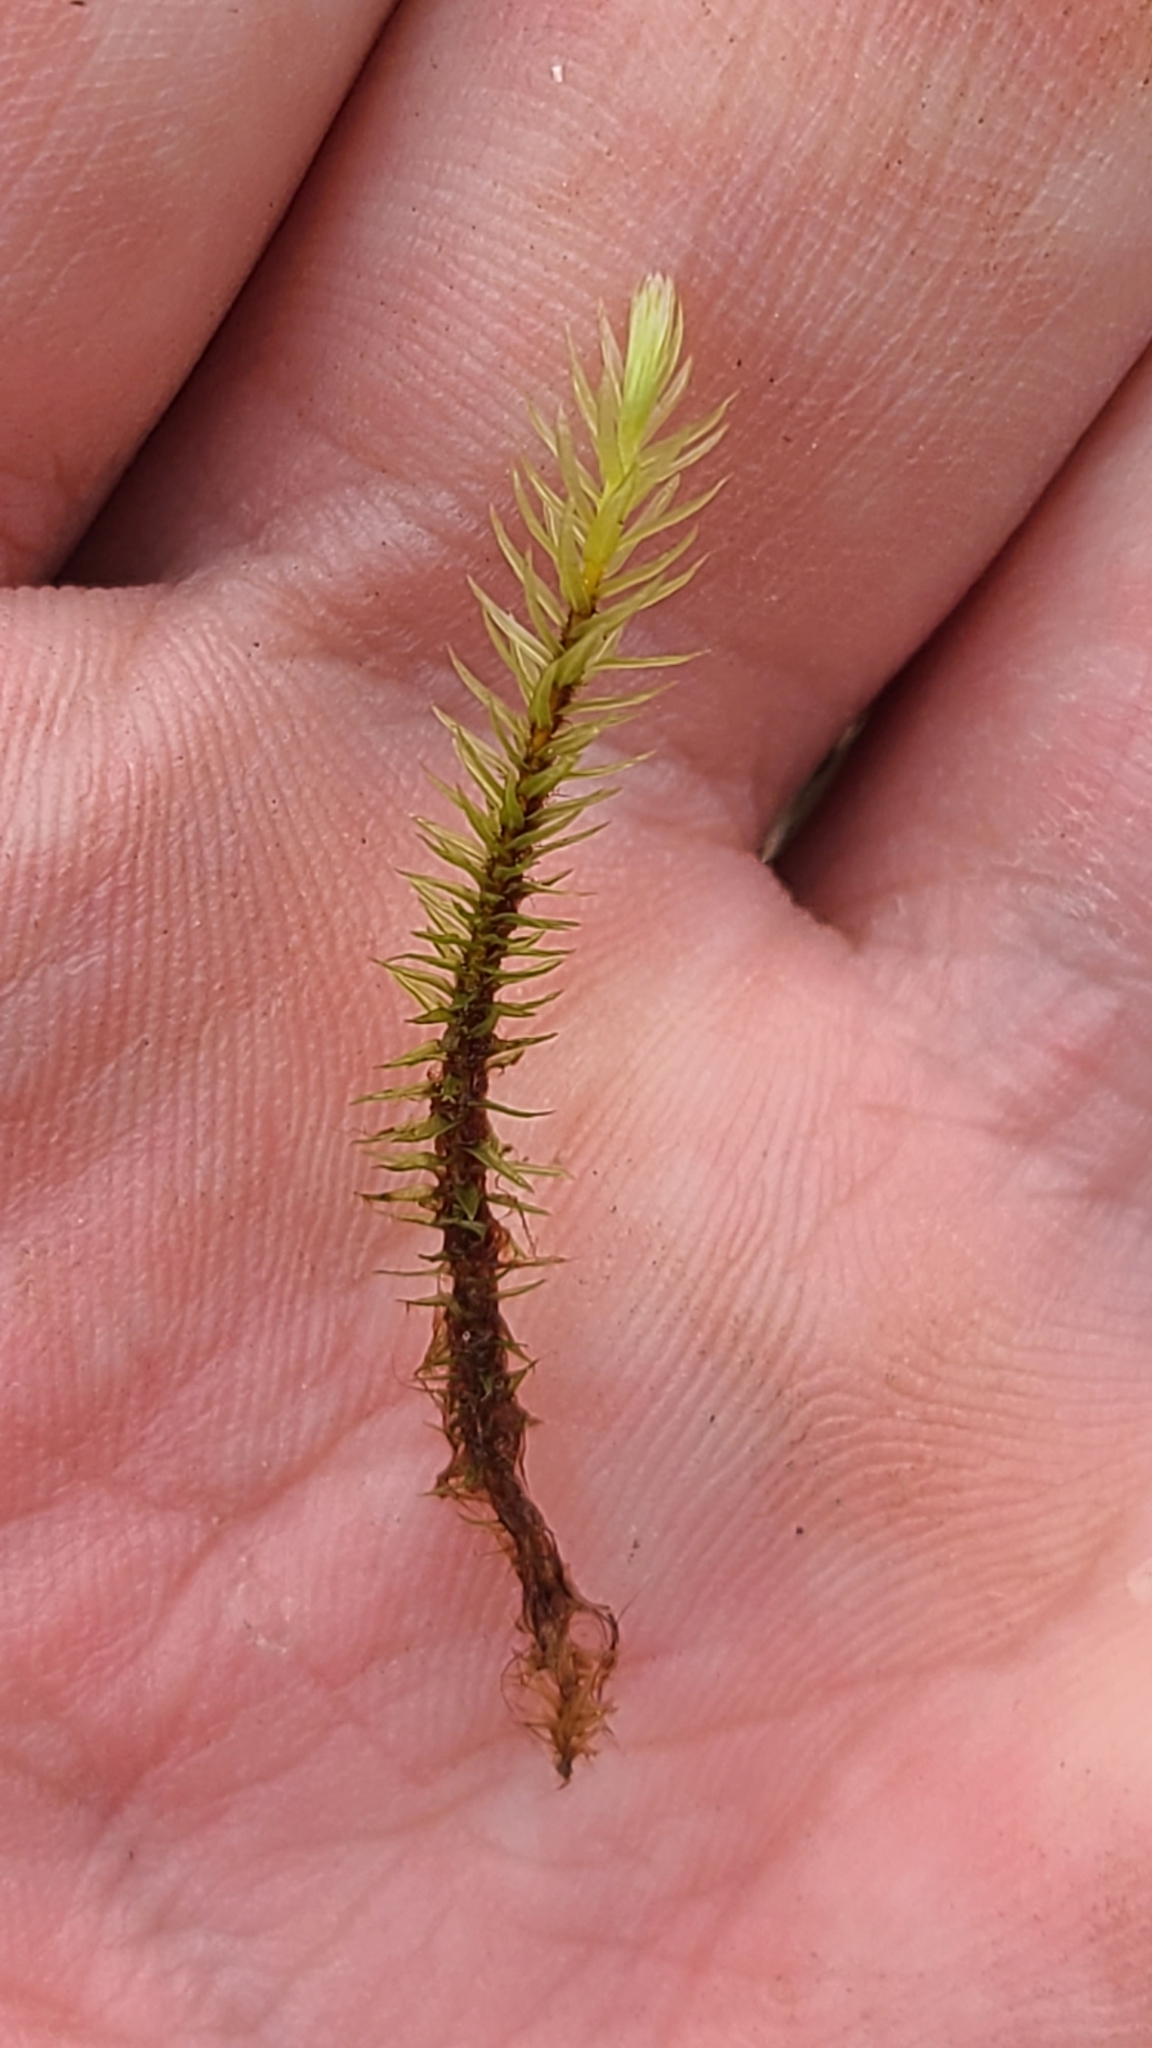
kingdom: Plantae
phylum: Bryophyta
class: Bryopsida
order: Aulacomniales
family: Aulacomniaceae
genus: Aulacomnium
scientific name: Aulacomnium palustre
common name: Bog groove-moss
